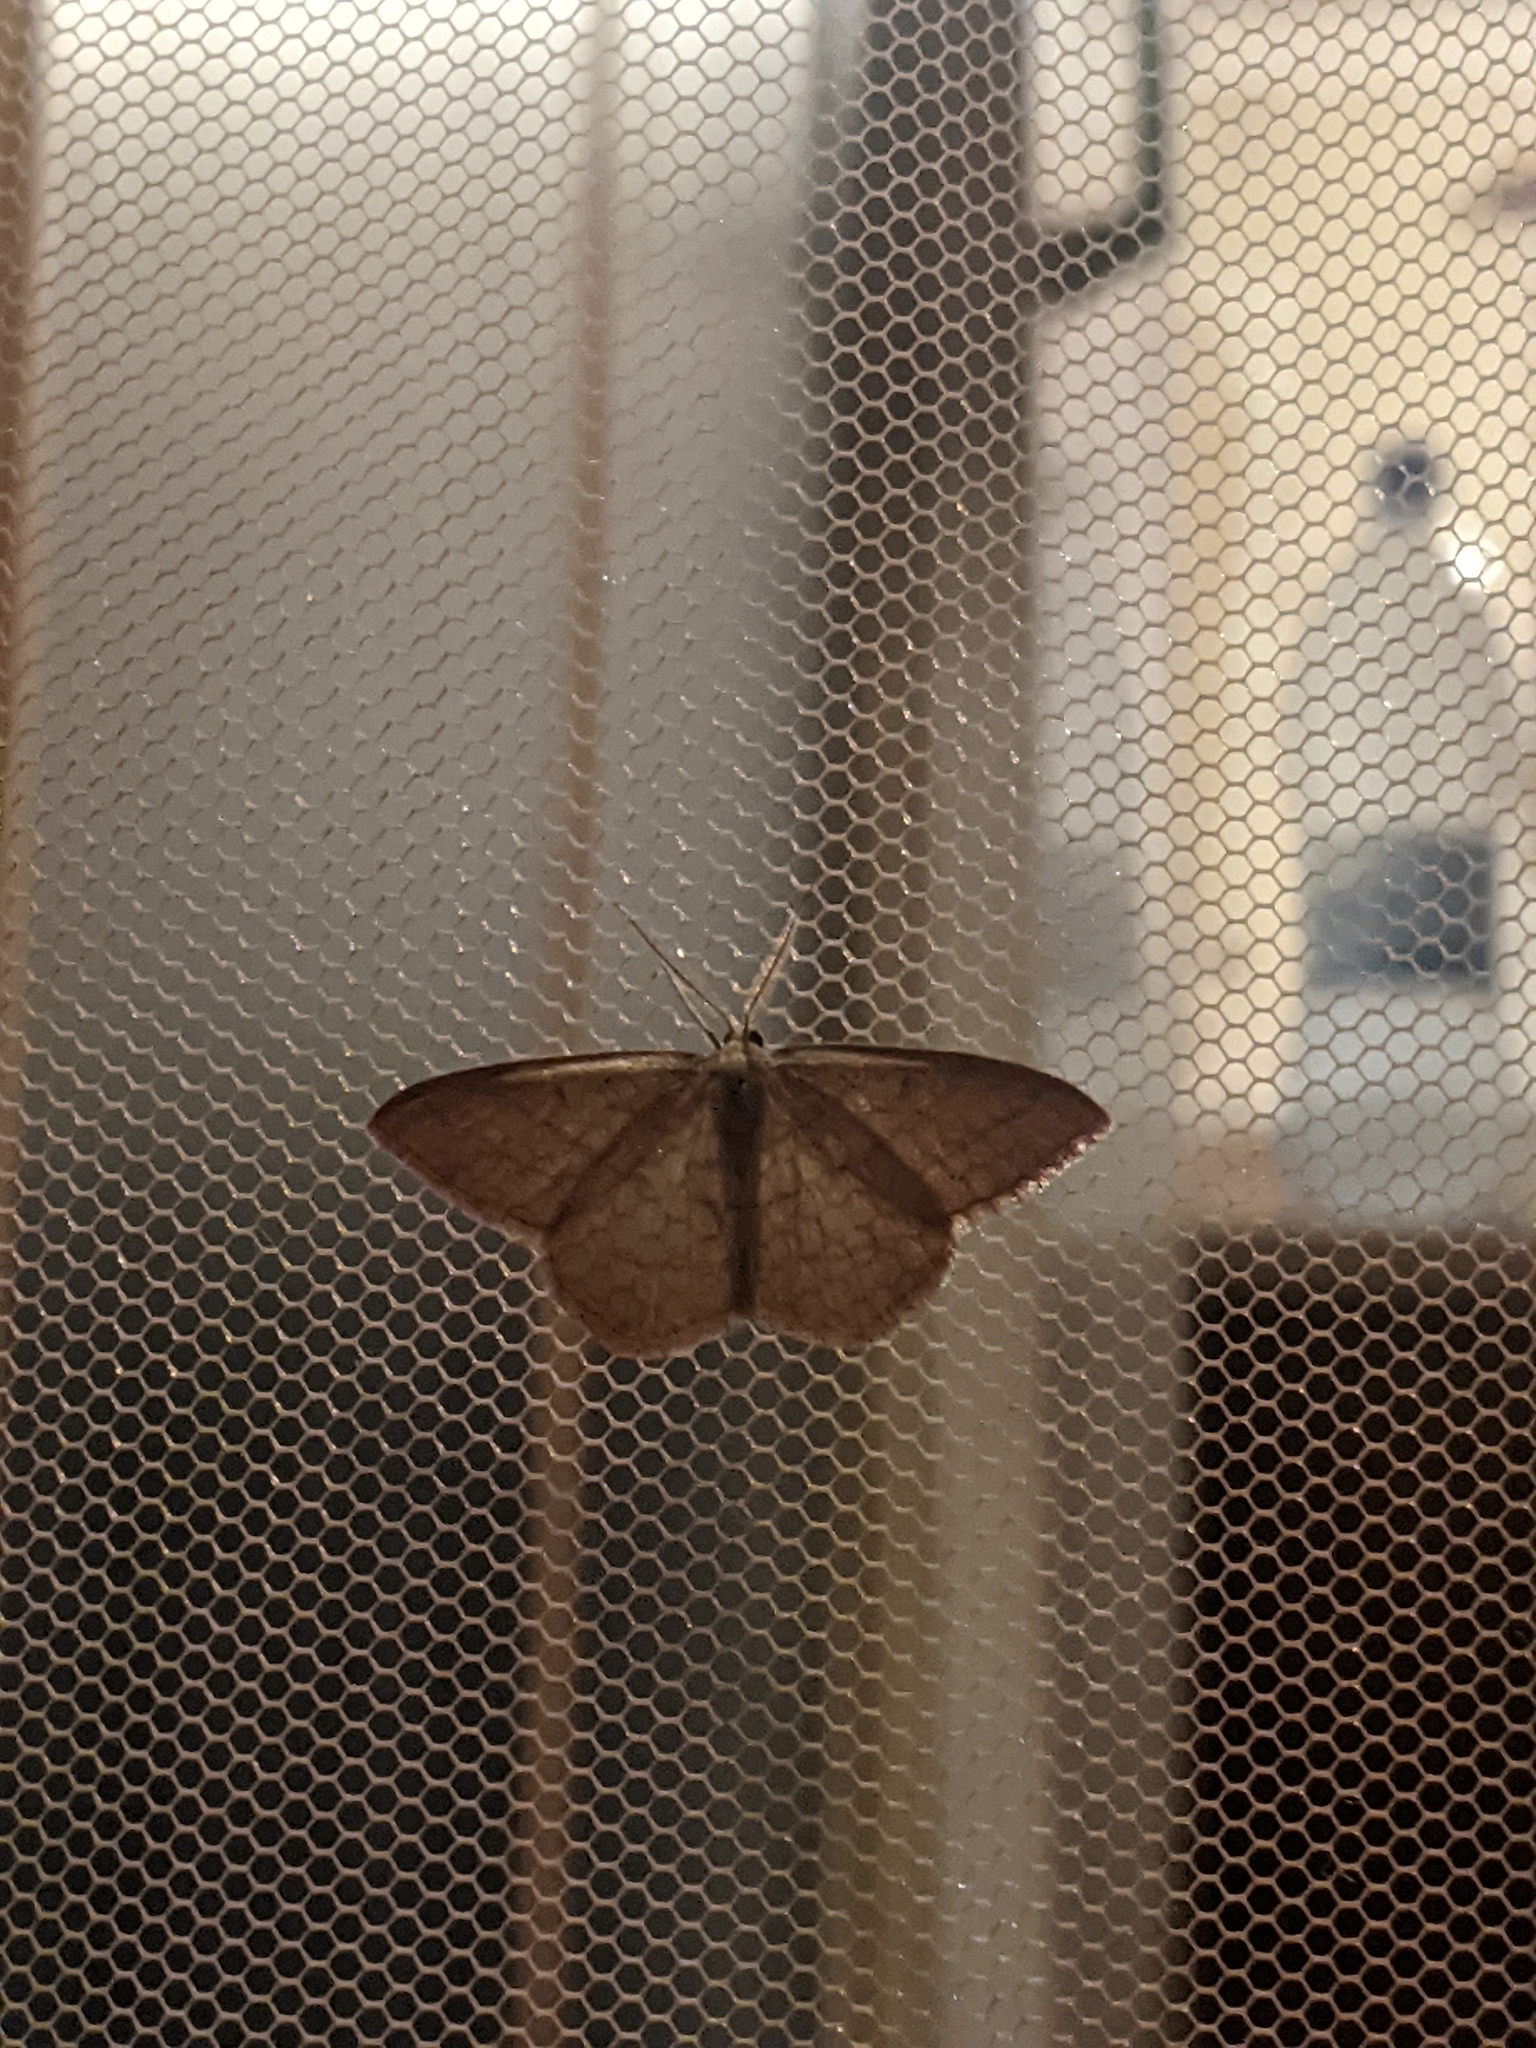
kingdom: Animalia
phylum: Arthropoda
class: Insecta
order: Lepidoptera
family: Geometridae
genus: Rhodostrophia
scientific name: Rhodostrophia vibicaria
